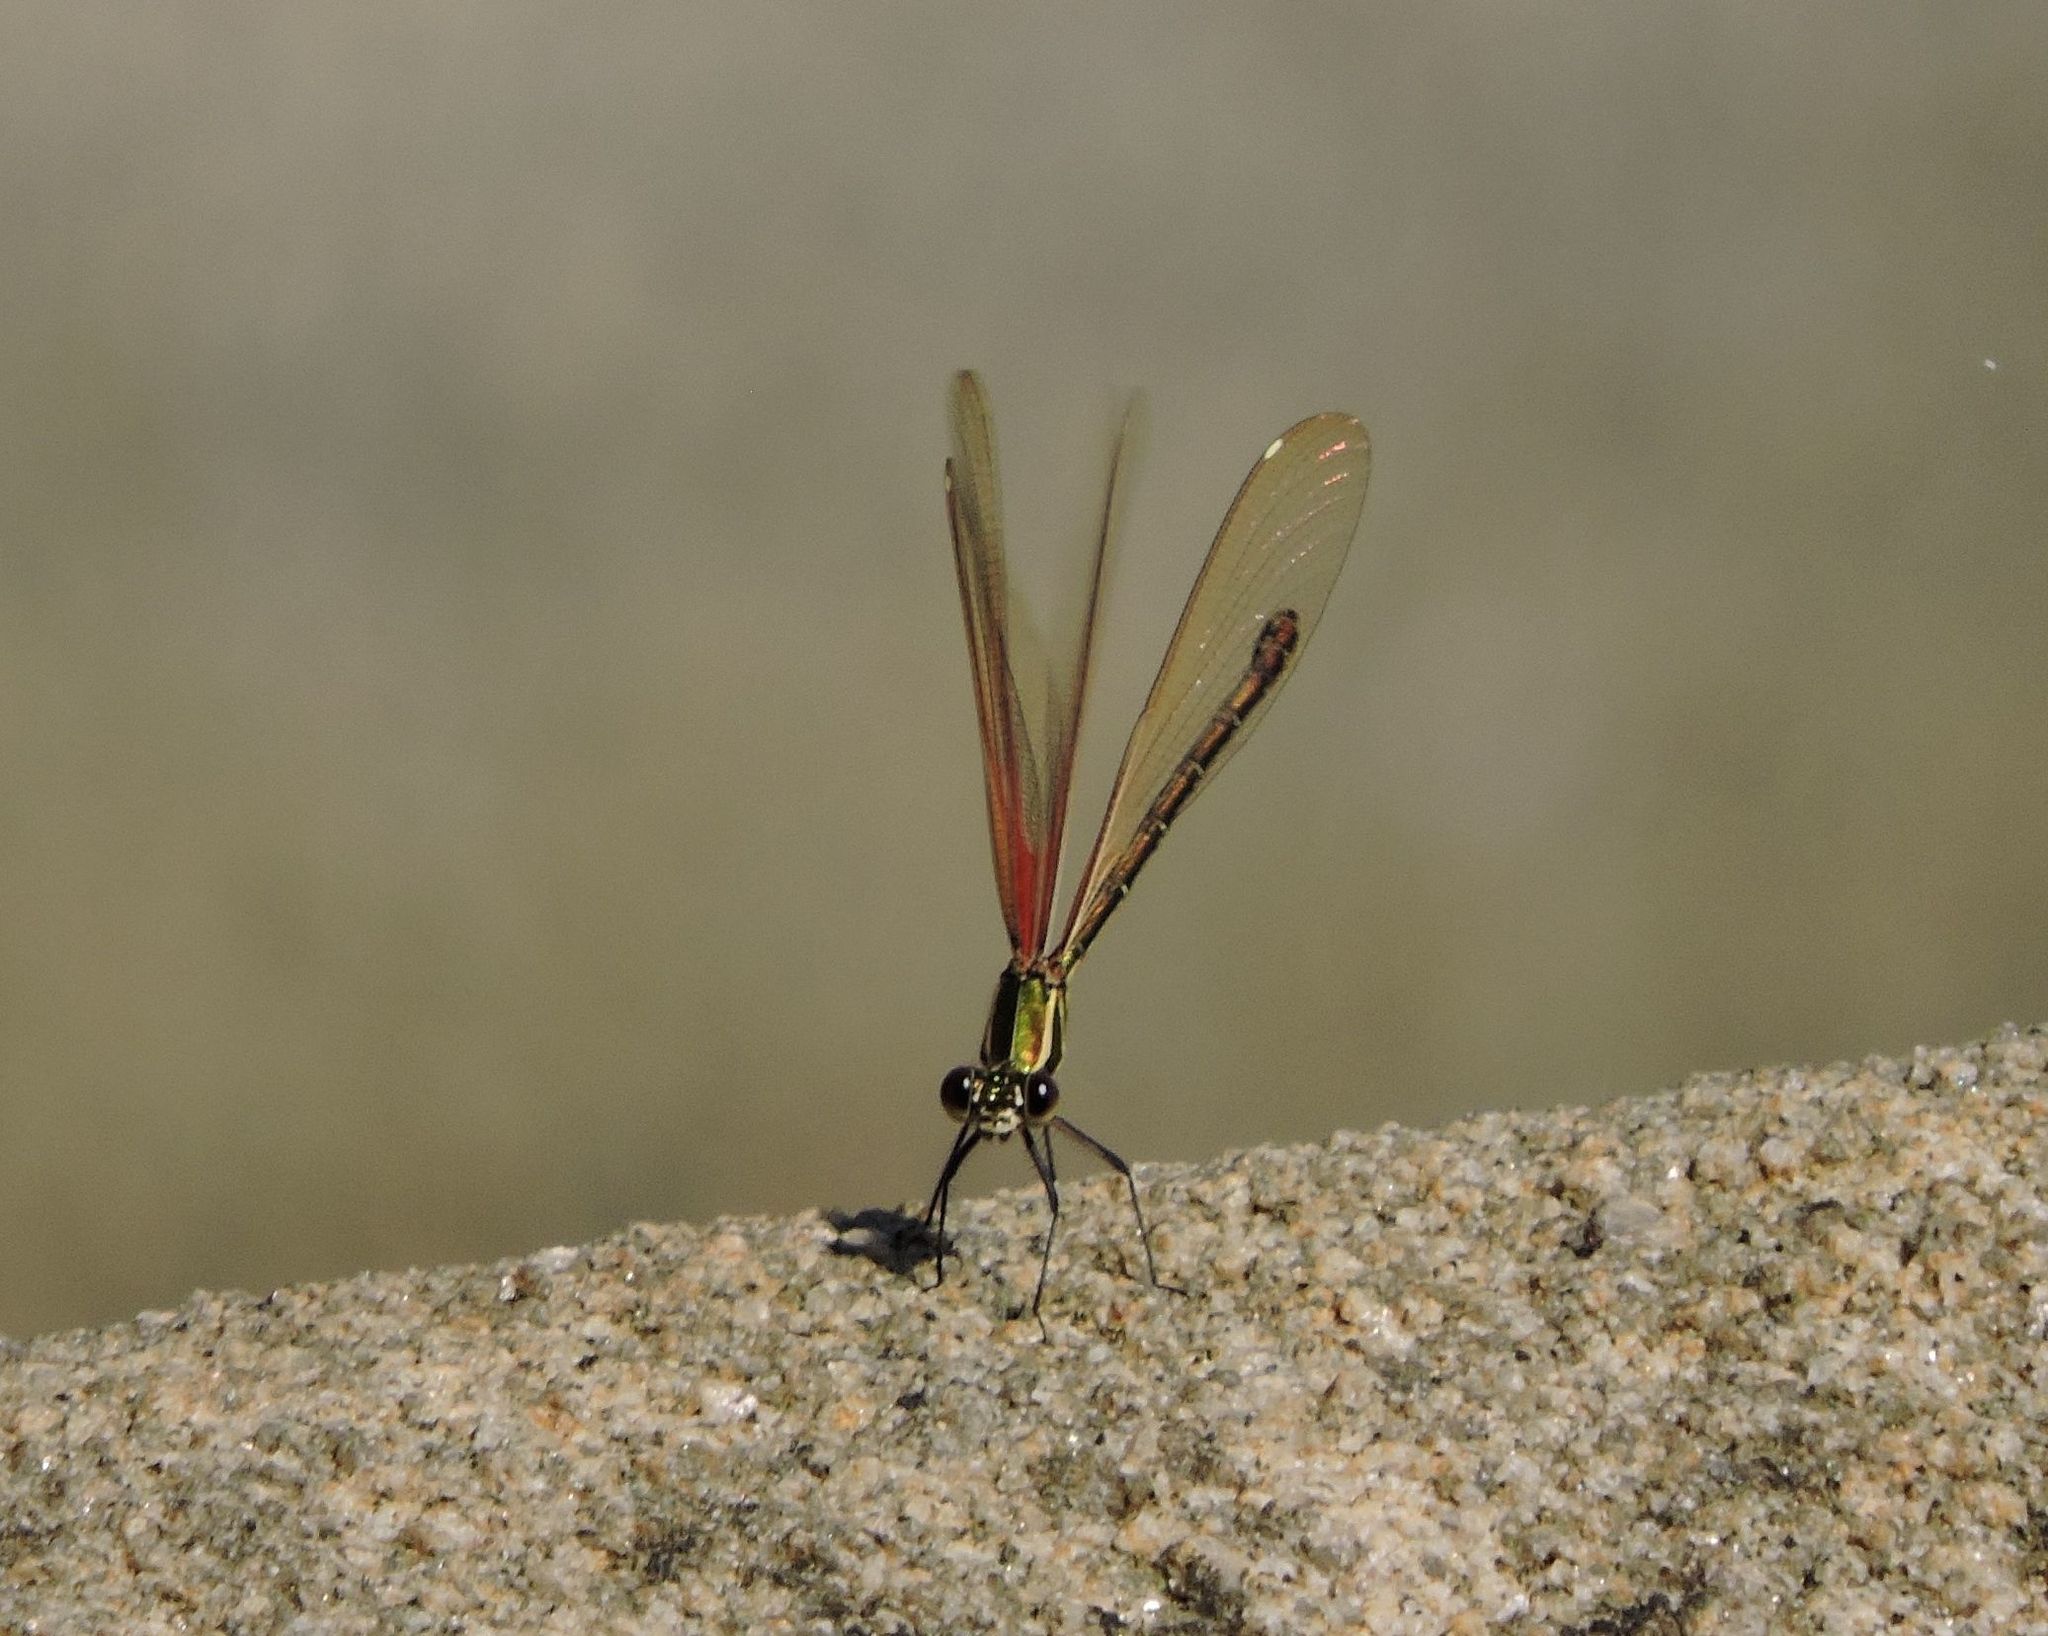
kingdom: Animalia
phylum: Arthropoda
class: Insecta
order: Odonata
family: Calopterygidae
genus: Hetaerina
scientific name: Hetaerina americana
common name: American rubyspot
